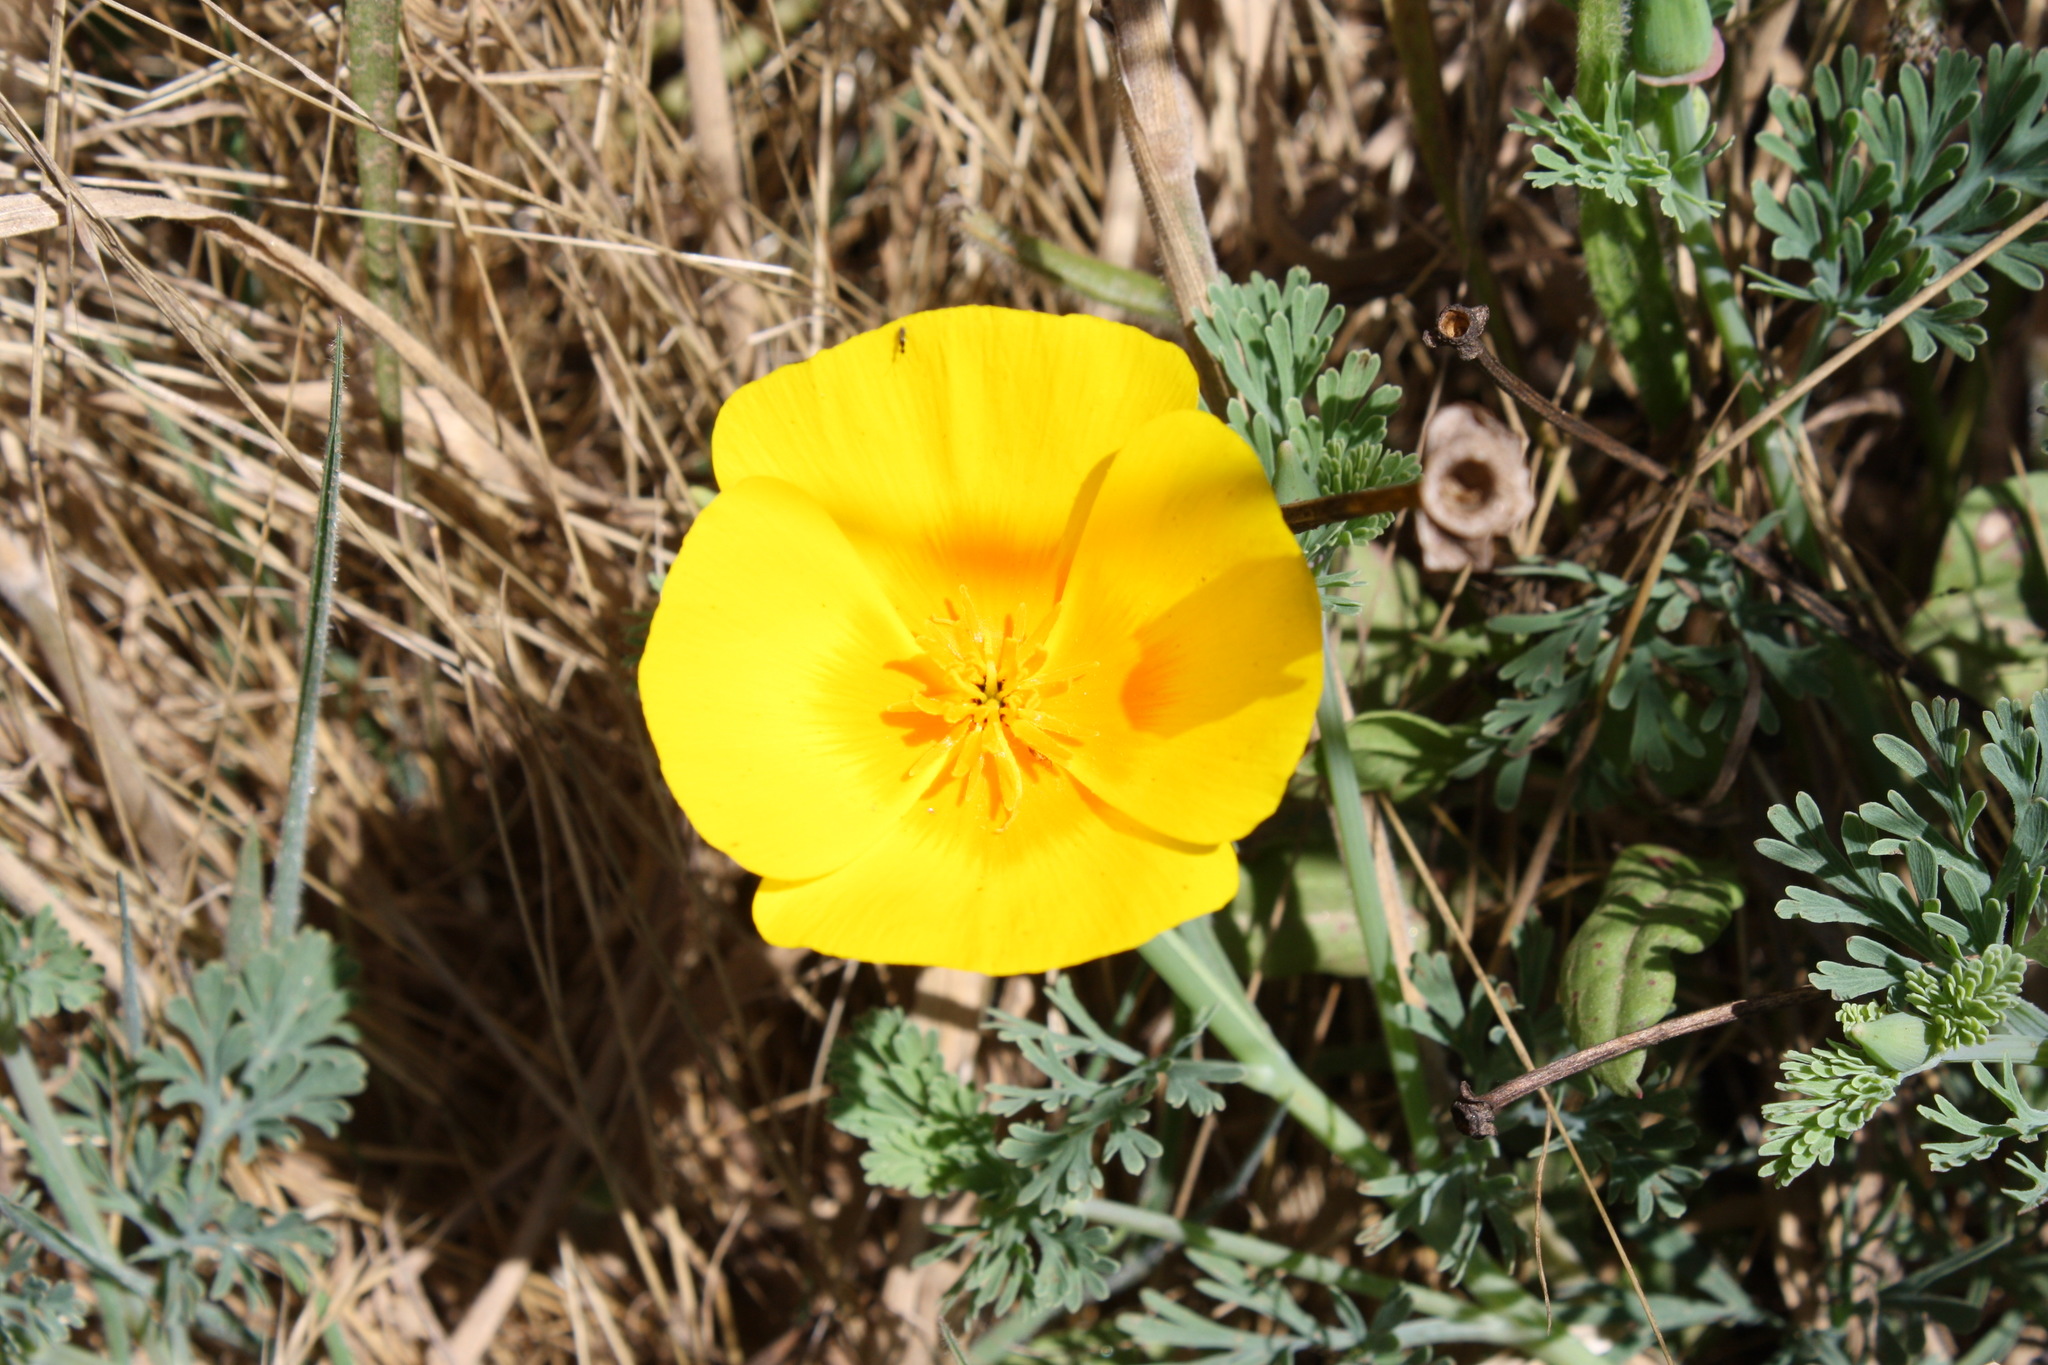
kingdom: Plantae
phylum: Tracheophyta
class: Magnoliopsida
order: Ranunculales
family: Papaveraceae
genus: Eschscholzia
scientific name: Eschscholzia californica
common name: California poppy
